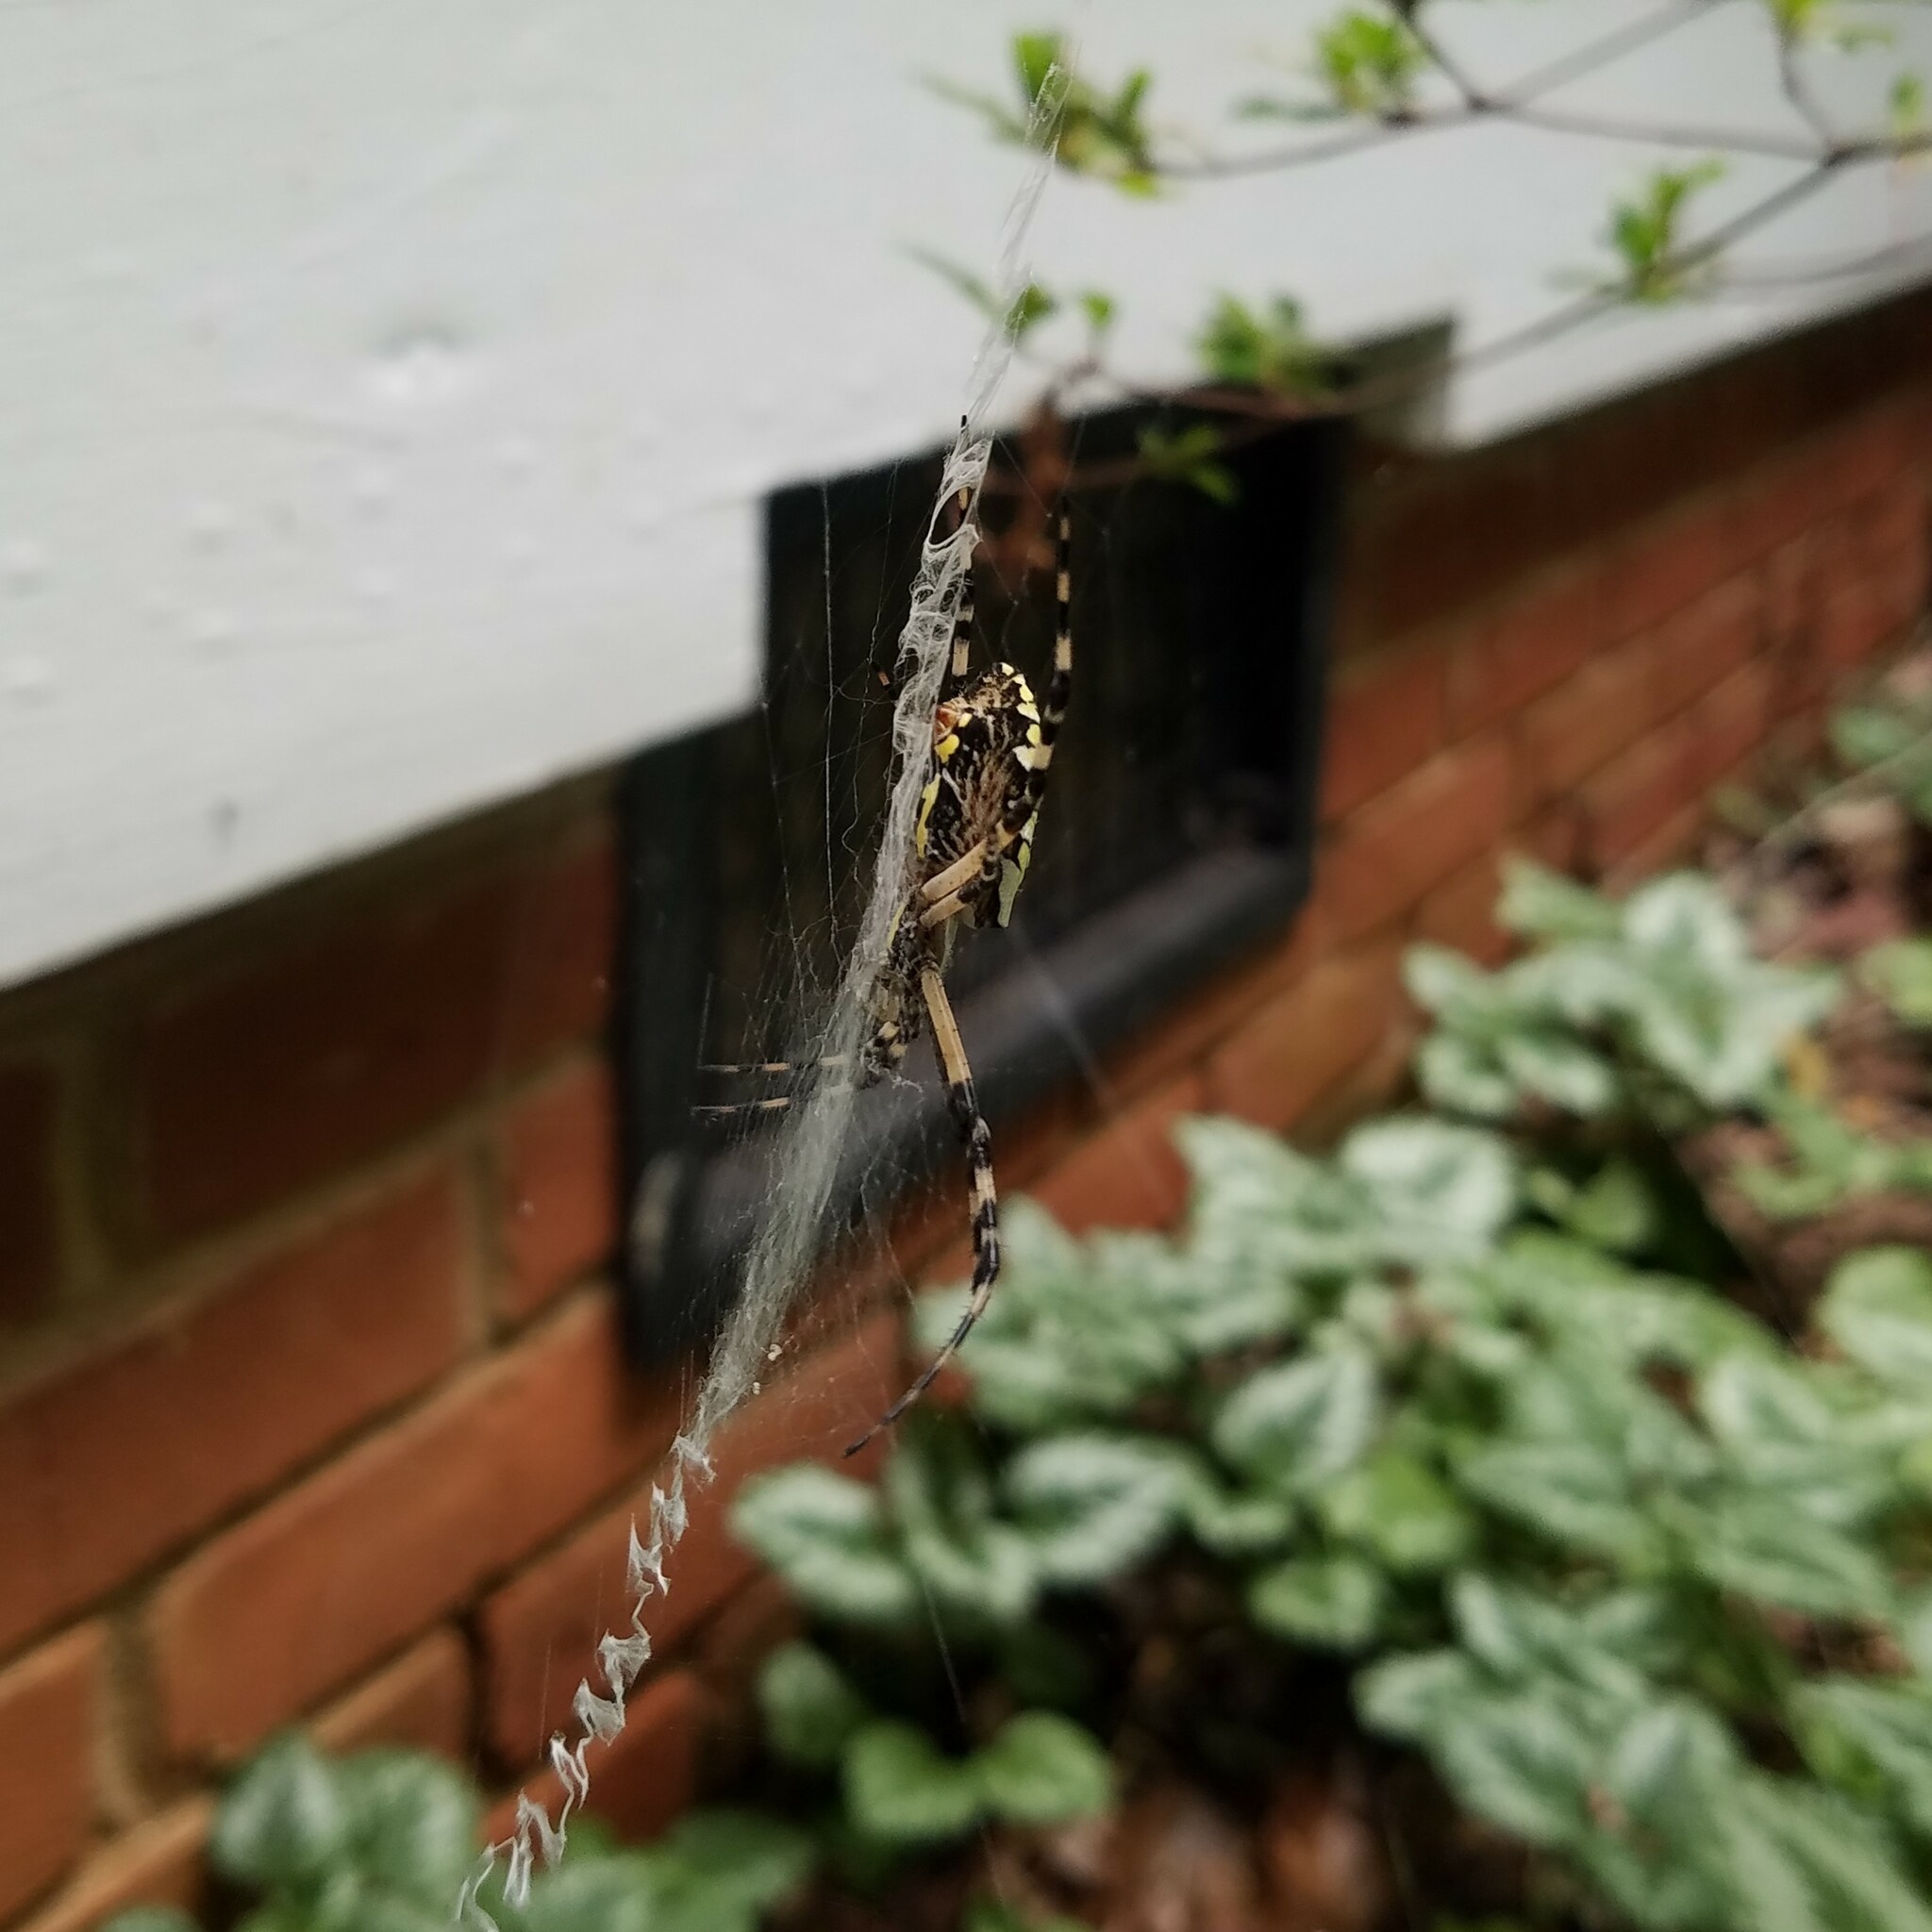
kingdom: Animalia
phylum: Arthropoda
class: Arachnida
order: Araneae
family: Araneidae
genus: Argiope
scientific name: Argiope aurantia
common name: Orb weavers
